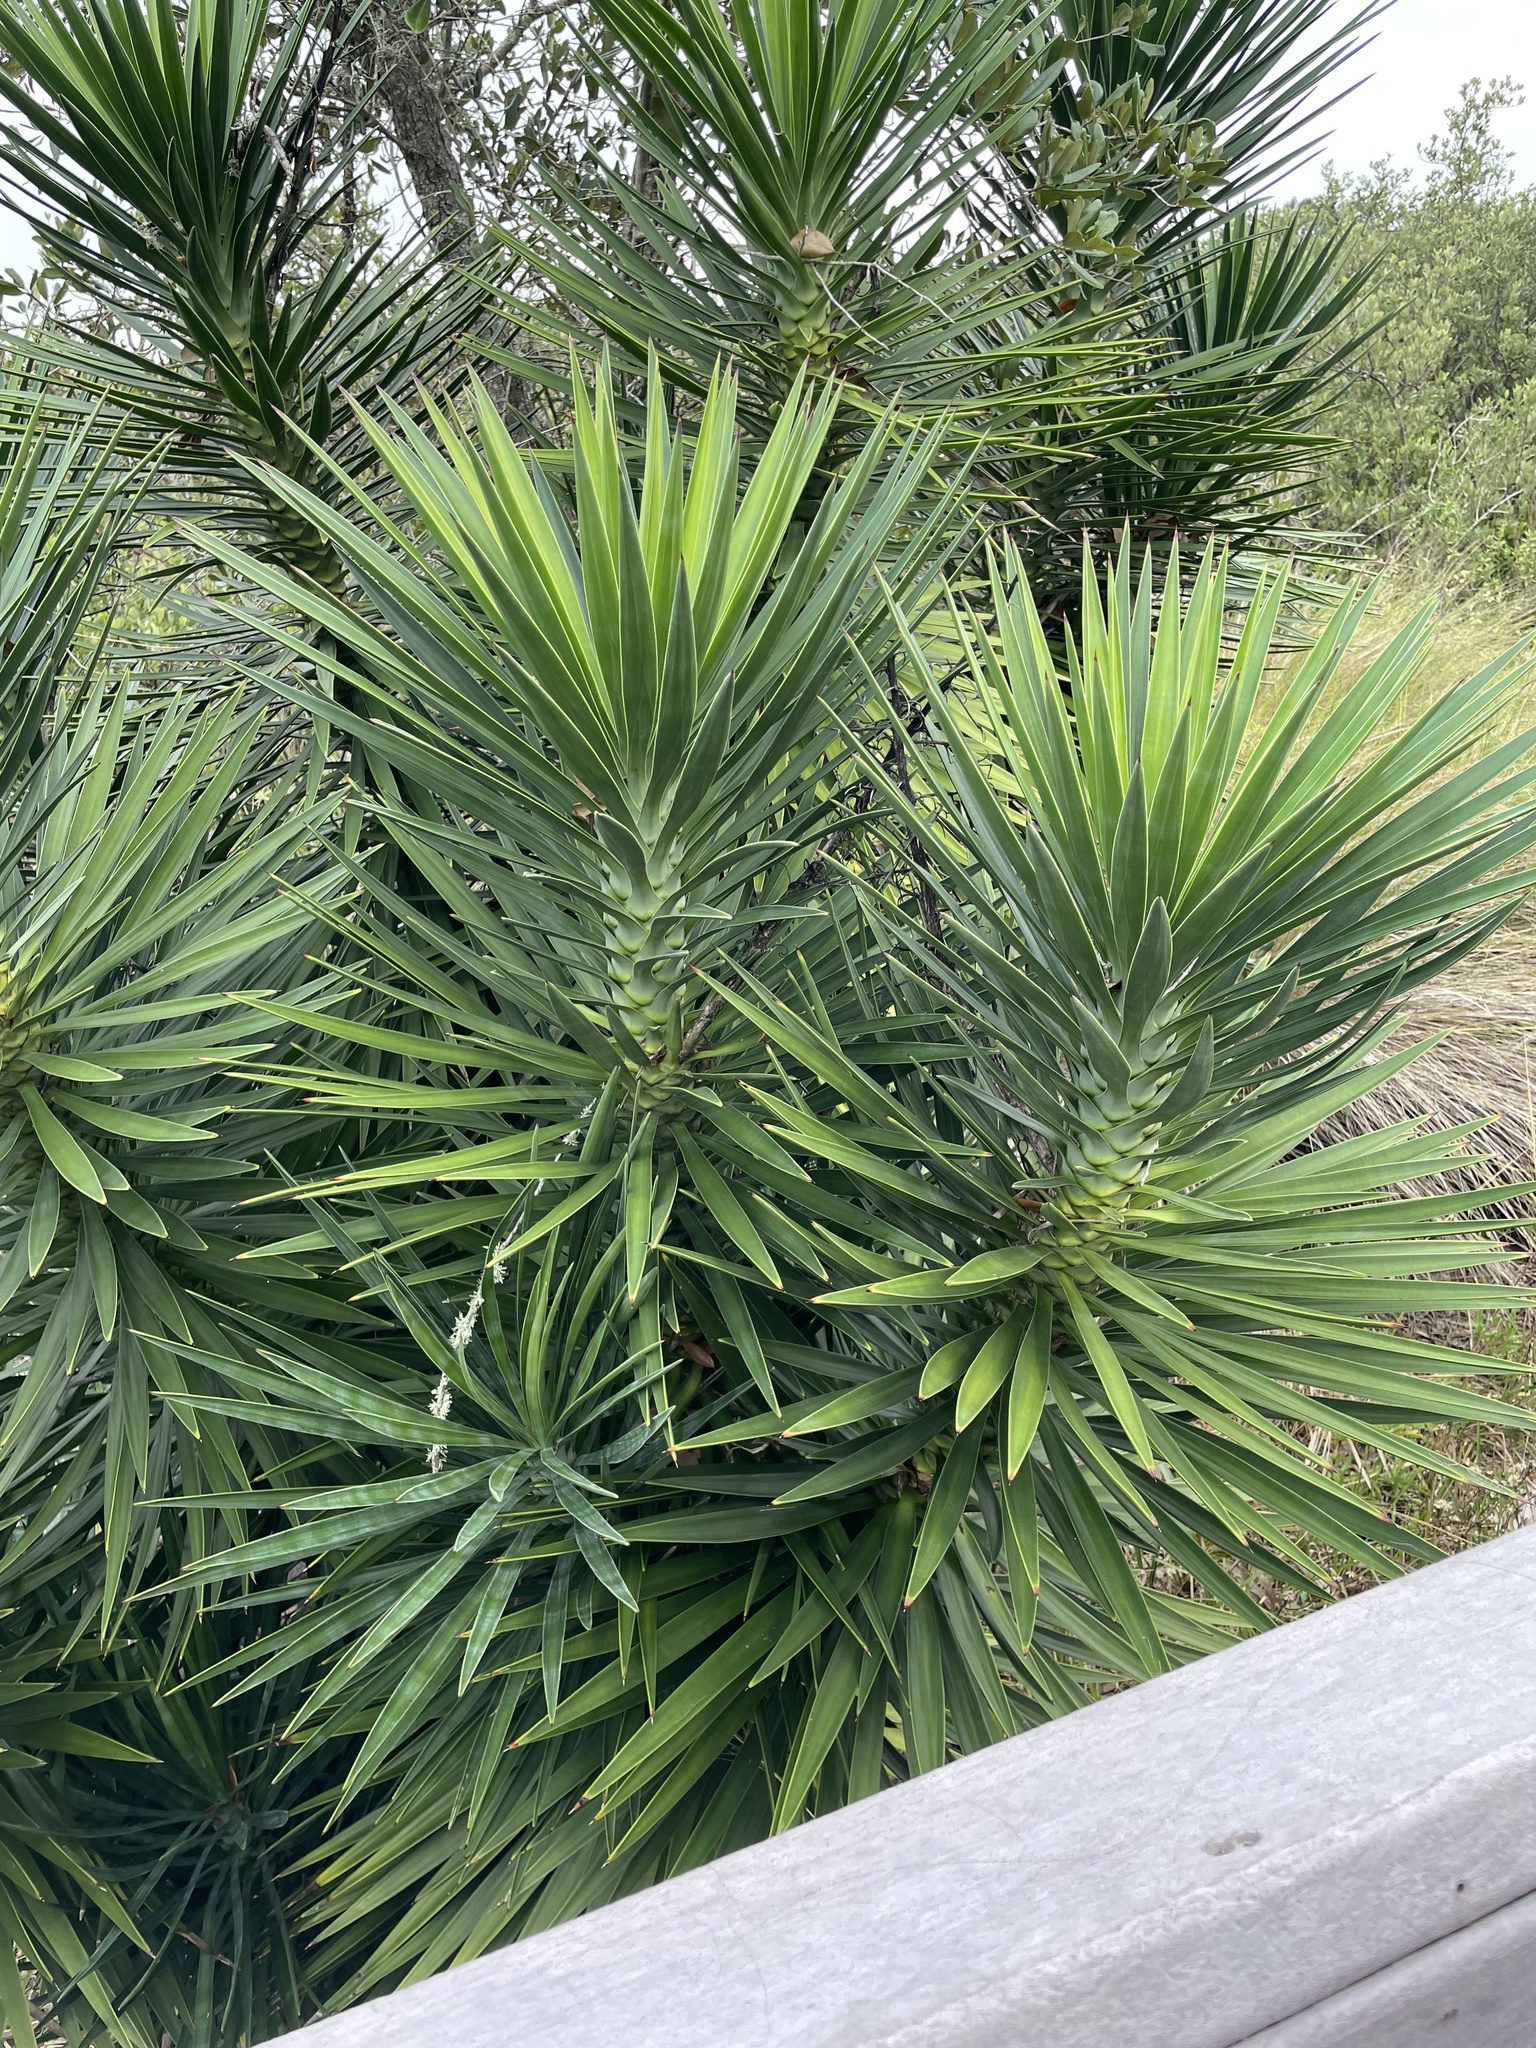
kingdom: Plantae
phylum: Tracheophyta
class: Liliopsida
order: Asparagales
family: Asparagaceae
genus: Yucca
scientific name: Yucca aloifolia
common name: Aloe yucca
